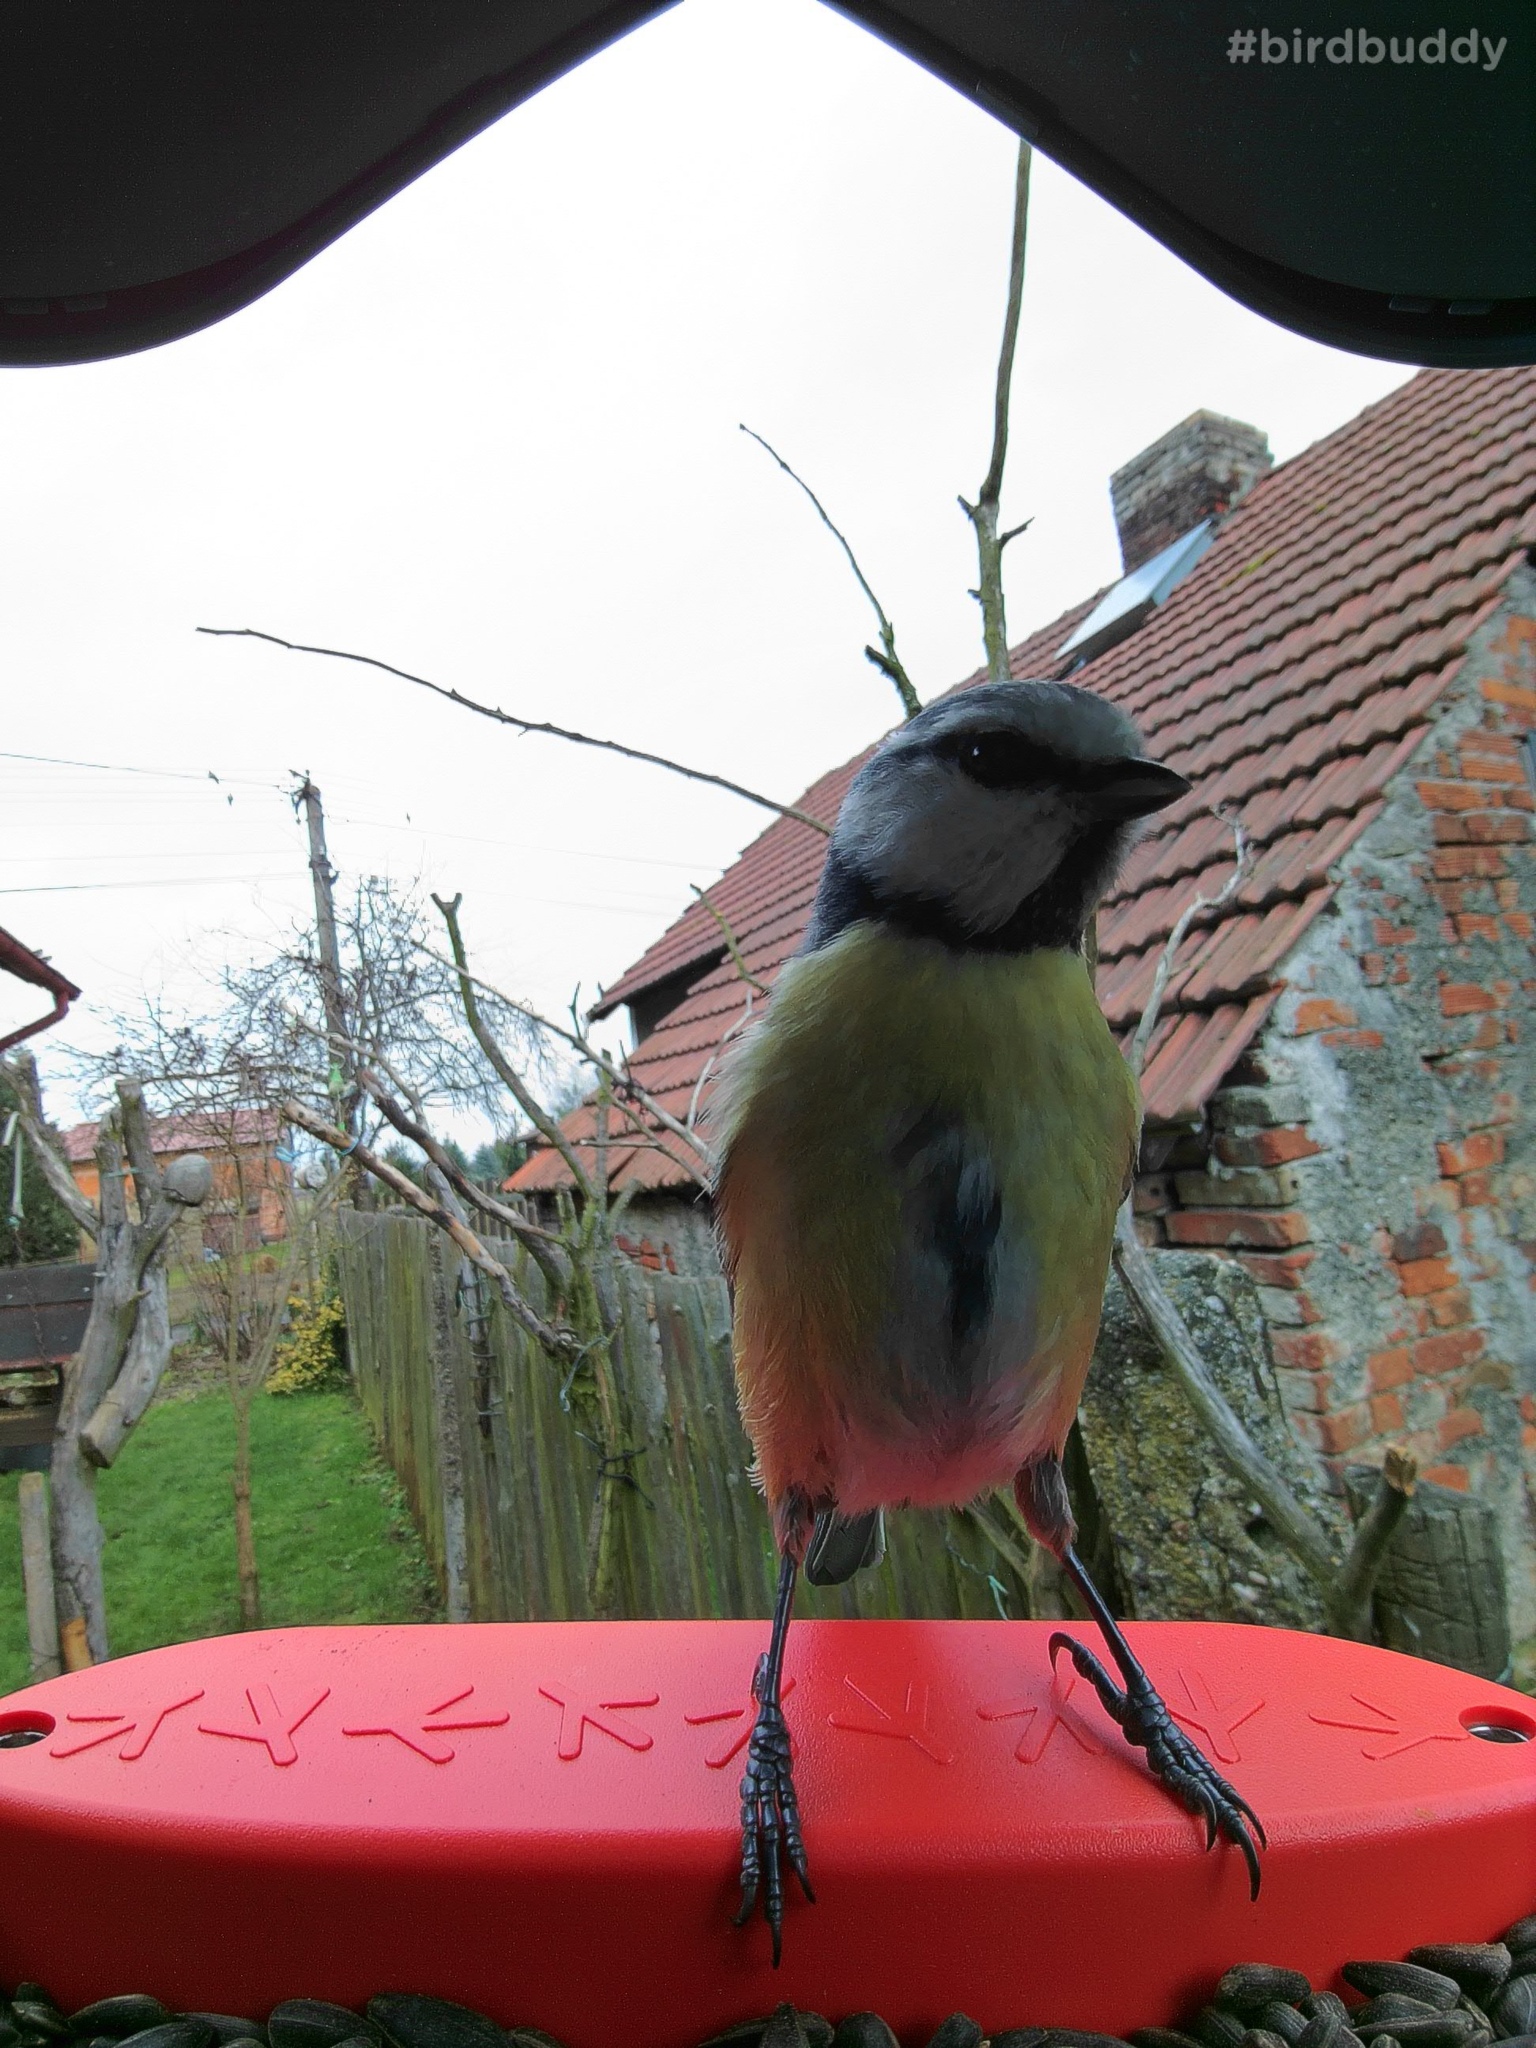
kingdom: Animalia
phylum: Chordata
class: Aves
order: Passeriformes
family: Paridae
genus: Cyanistes
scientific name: Cyanistes caeruleus
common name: Eurasian blue tit
